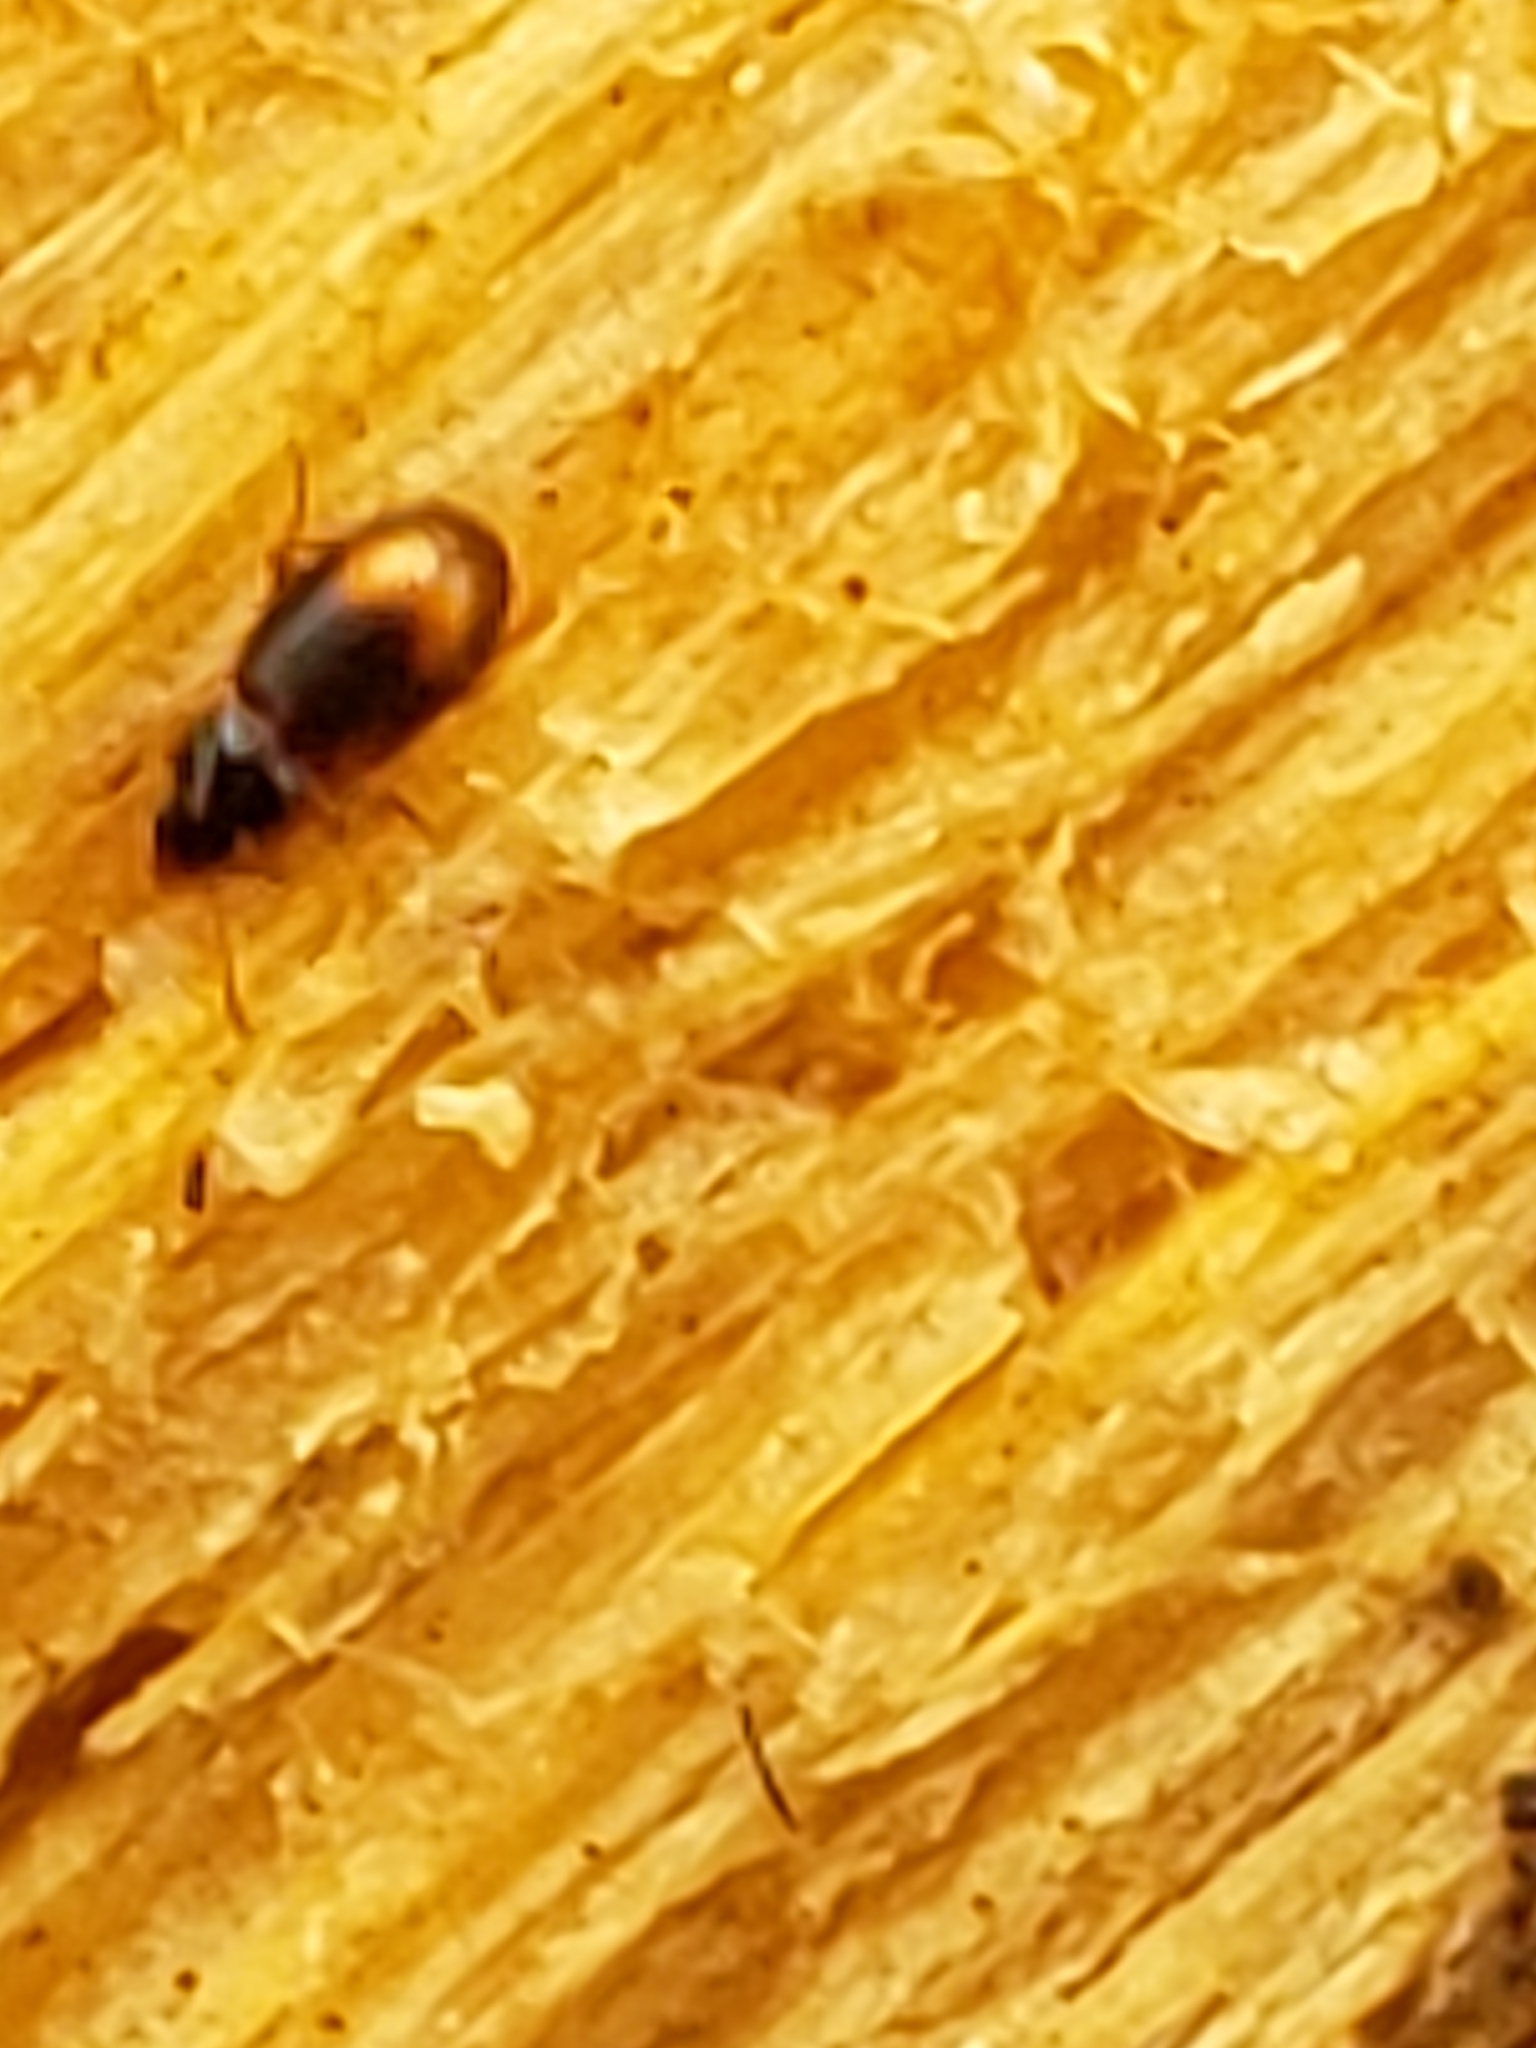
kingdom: Animalia
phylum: Arthropoda
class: Insecta
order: Coleoptera
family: Carabidae
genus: Mioptachys
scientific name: Mioptachys flavicauda
